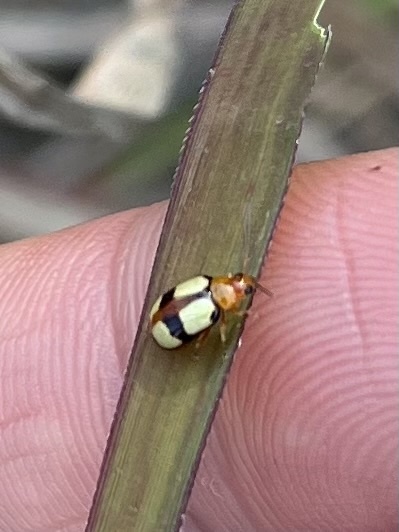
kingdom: Animalia
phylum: Arthropoda
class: Insecta
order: Coleoptera
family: Chrysomelidae
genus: Monolepta
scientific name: Monolepta
